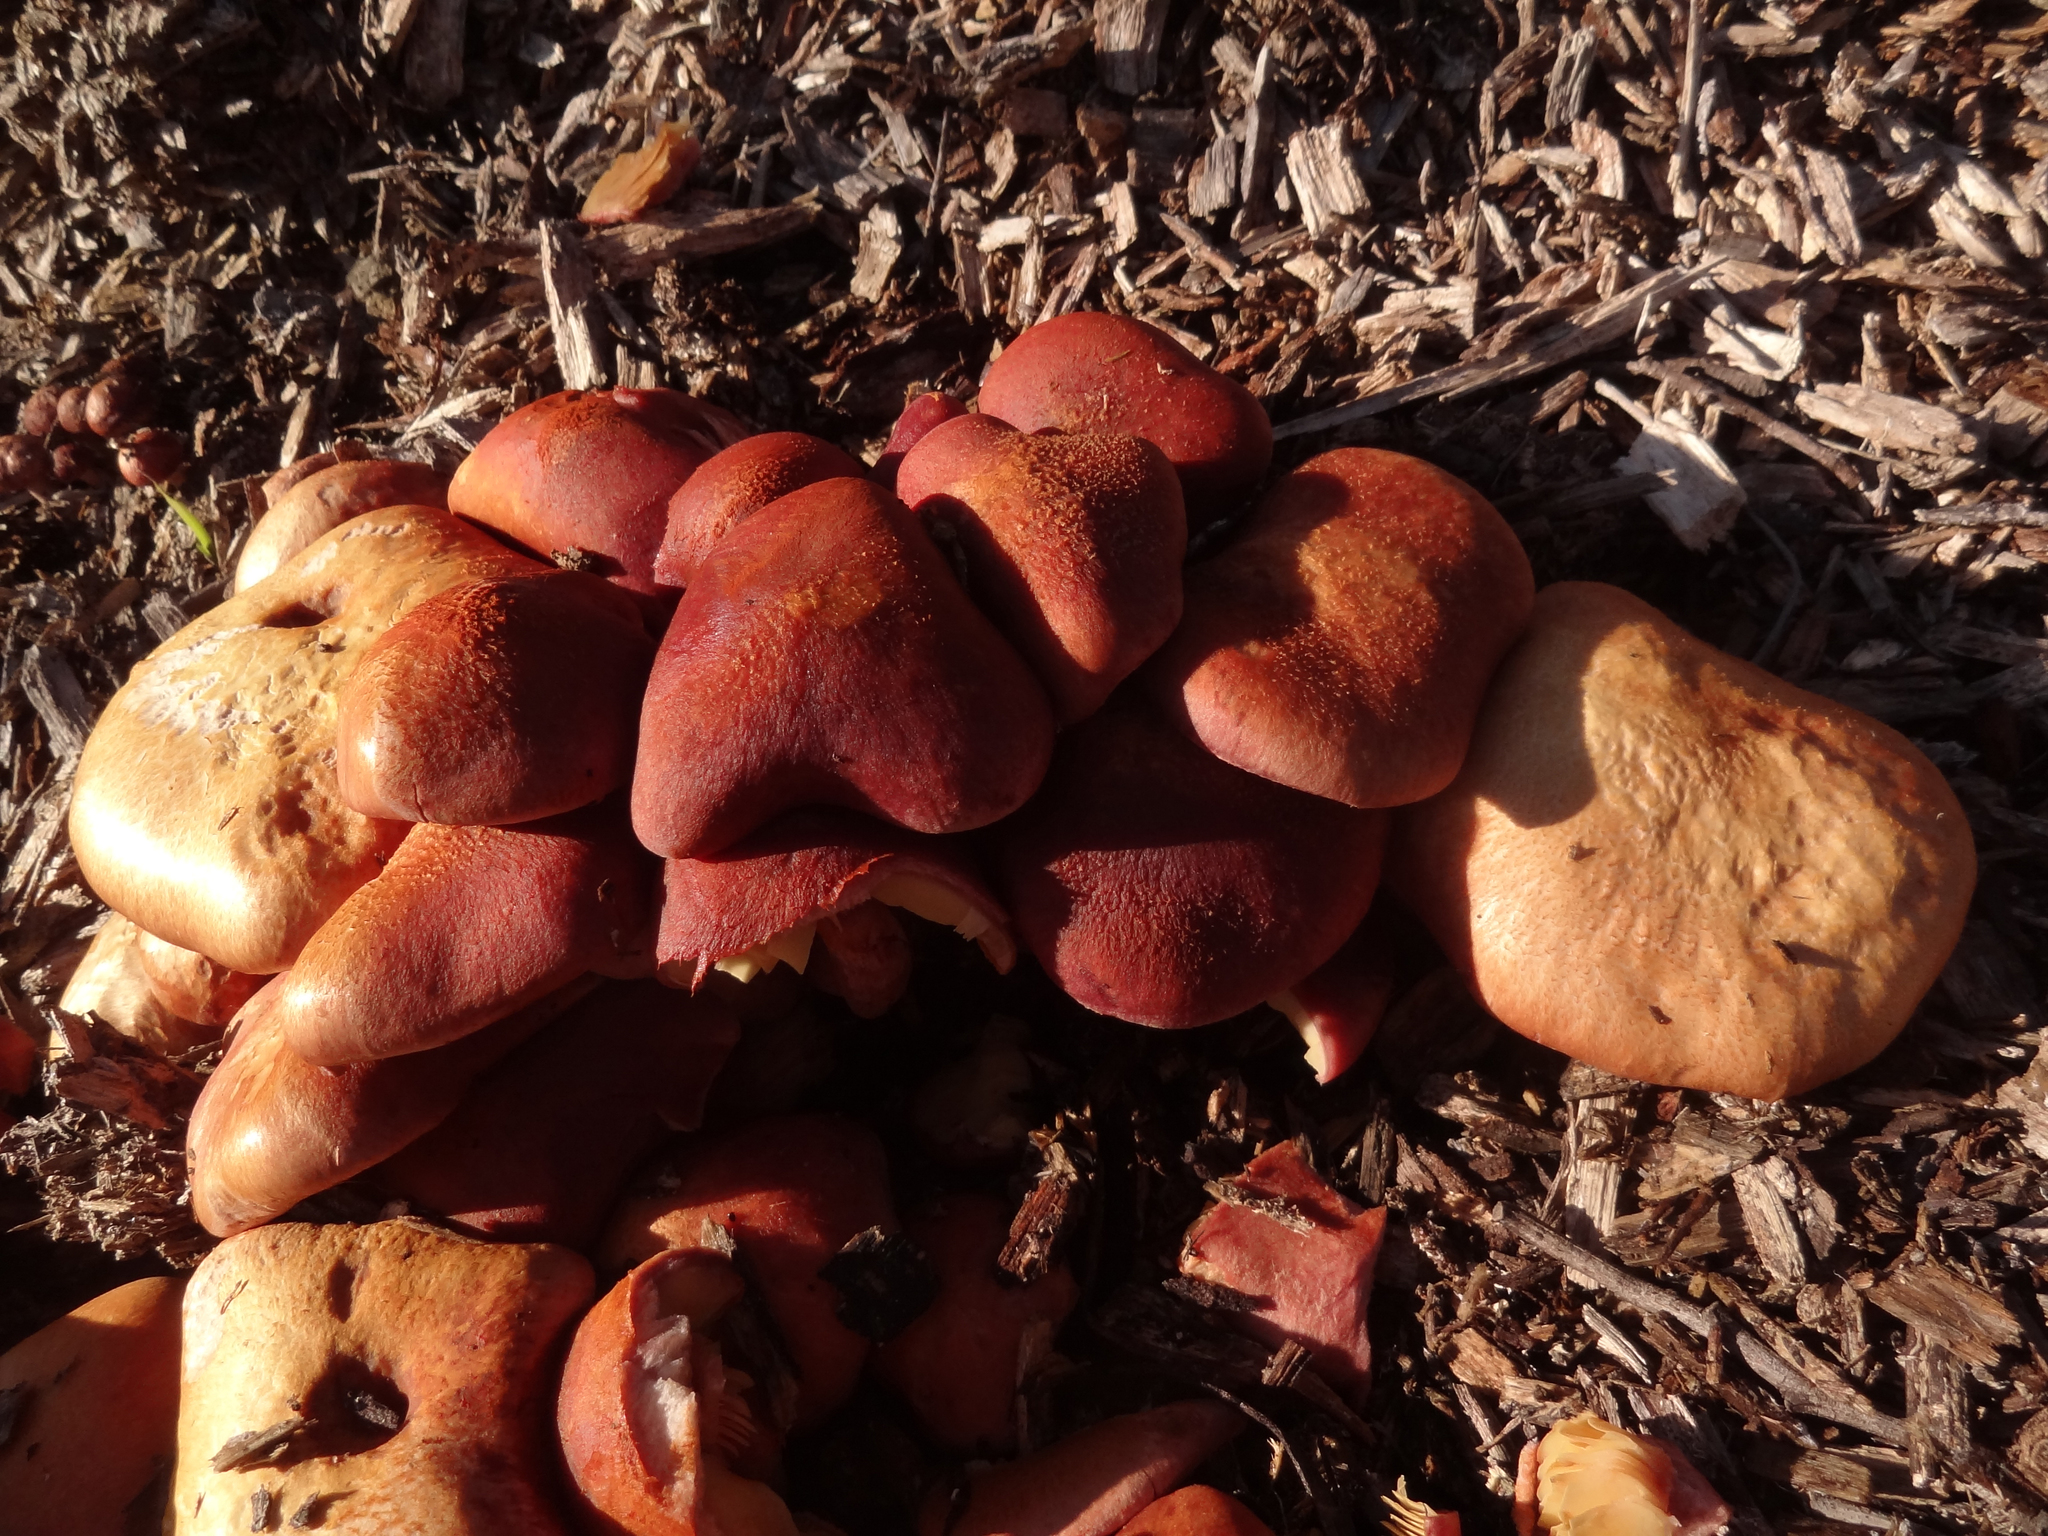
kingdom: Fungi
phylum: Basidiomycota
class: Agaricomycetes
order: Agaricales
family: Hymenogastraceae
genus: Gymnopilus
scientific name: Gymnopilus luteofolius
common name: Yellow-gilled gymnopilus
